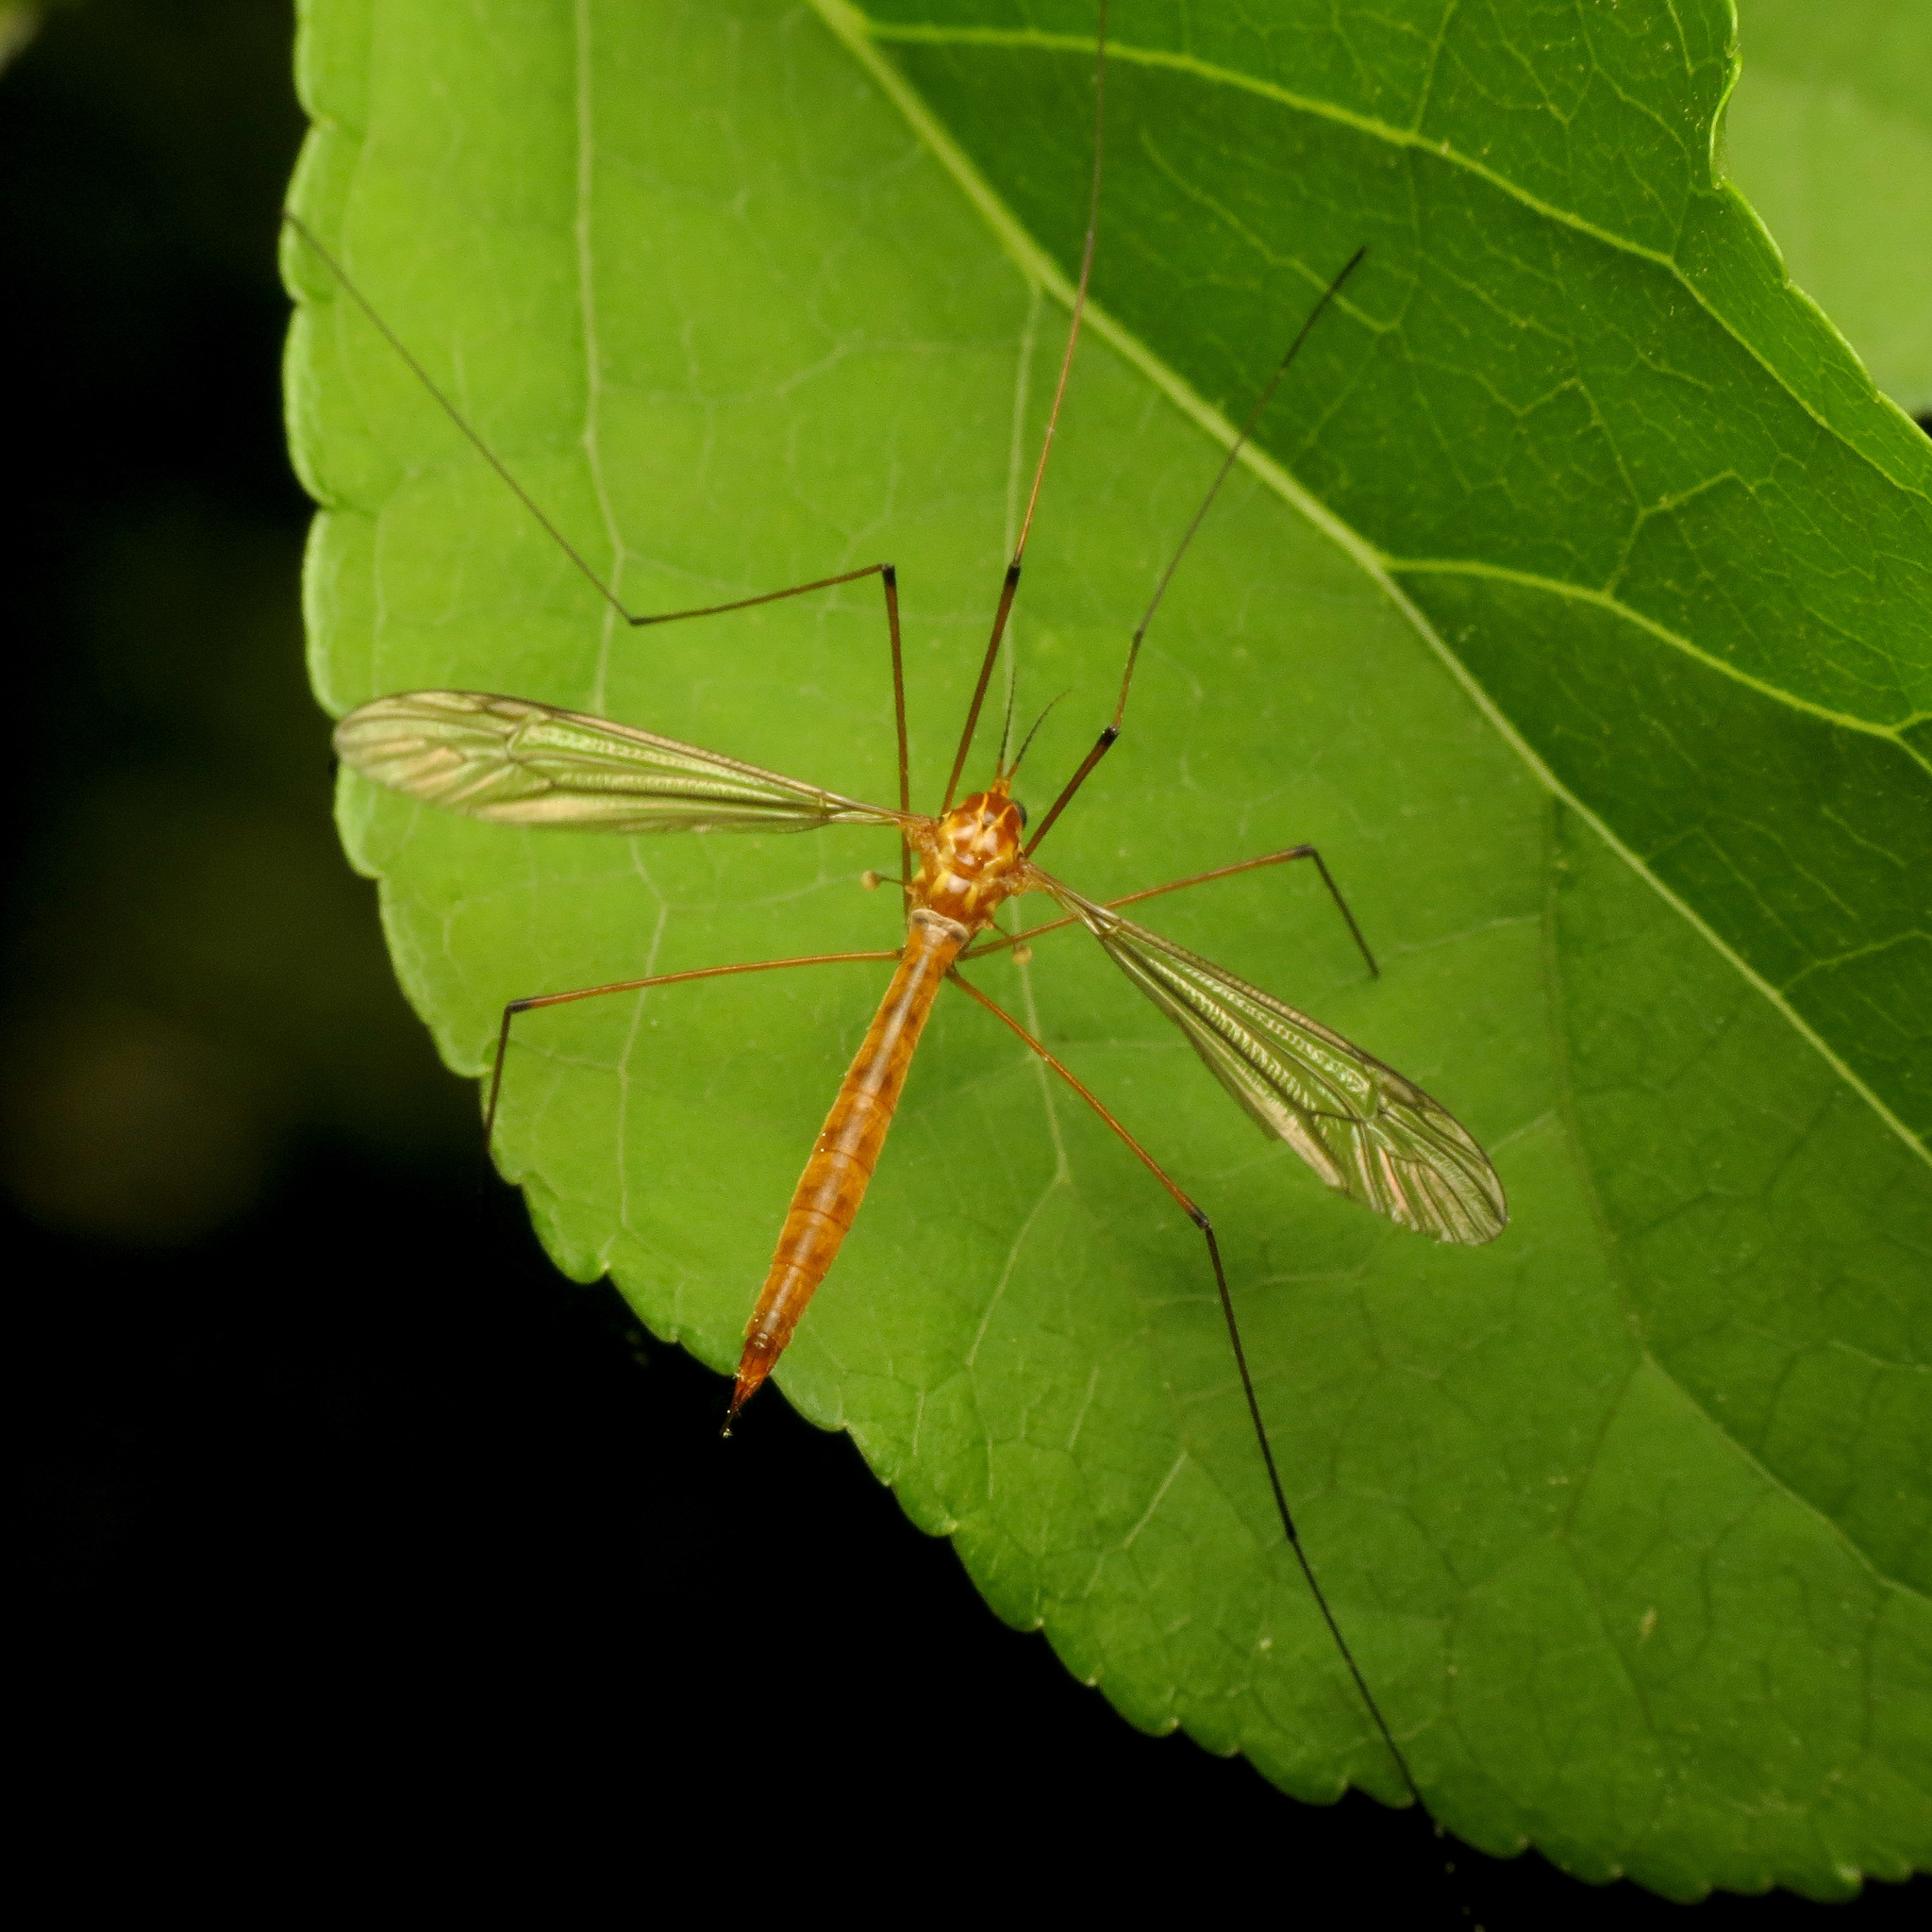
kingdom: Animalia
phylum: Arthropoda
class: Insecta
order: Diptera
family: Tipulidae
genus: Nephrotoma
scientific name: Nephrotoma ferruginea
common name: Ferruginous tiger crane fly
